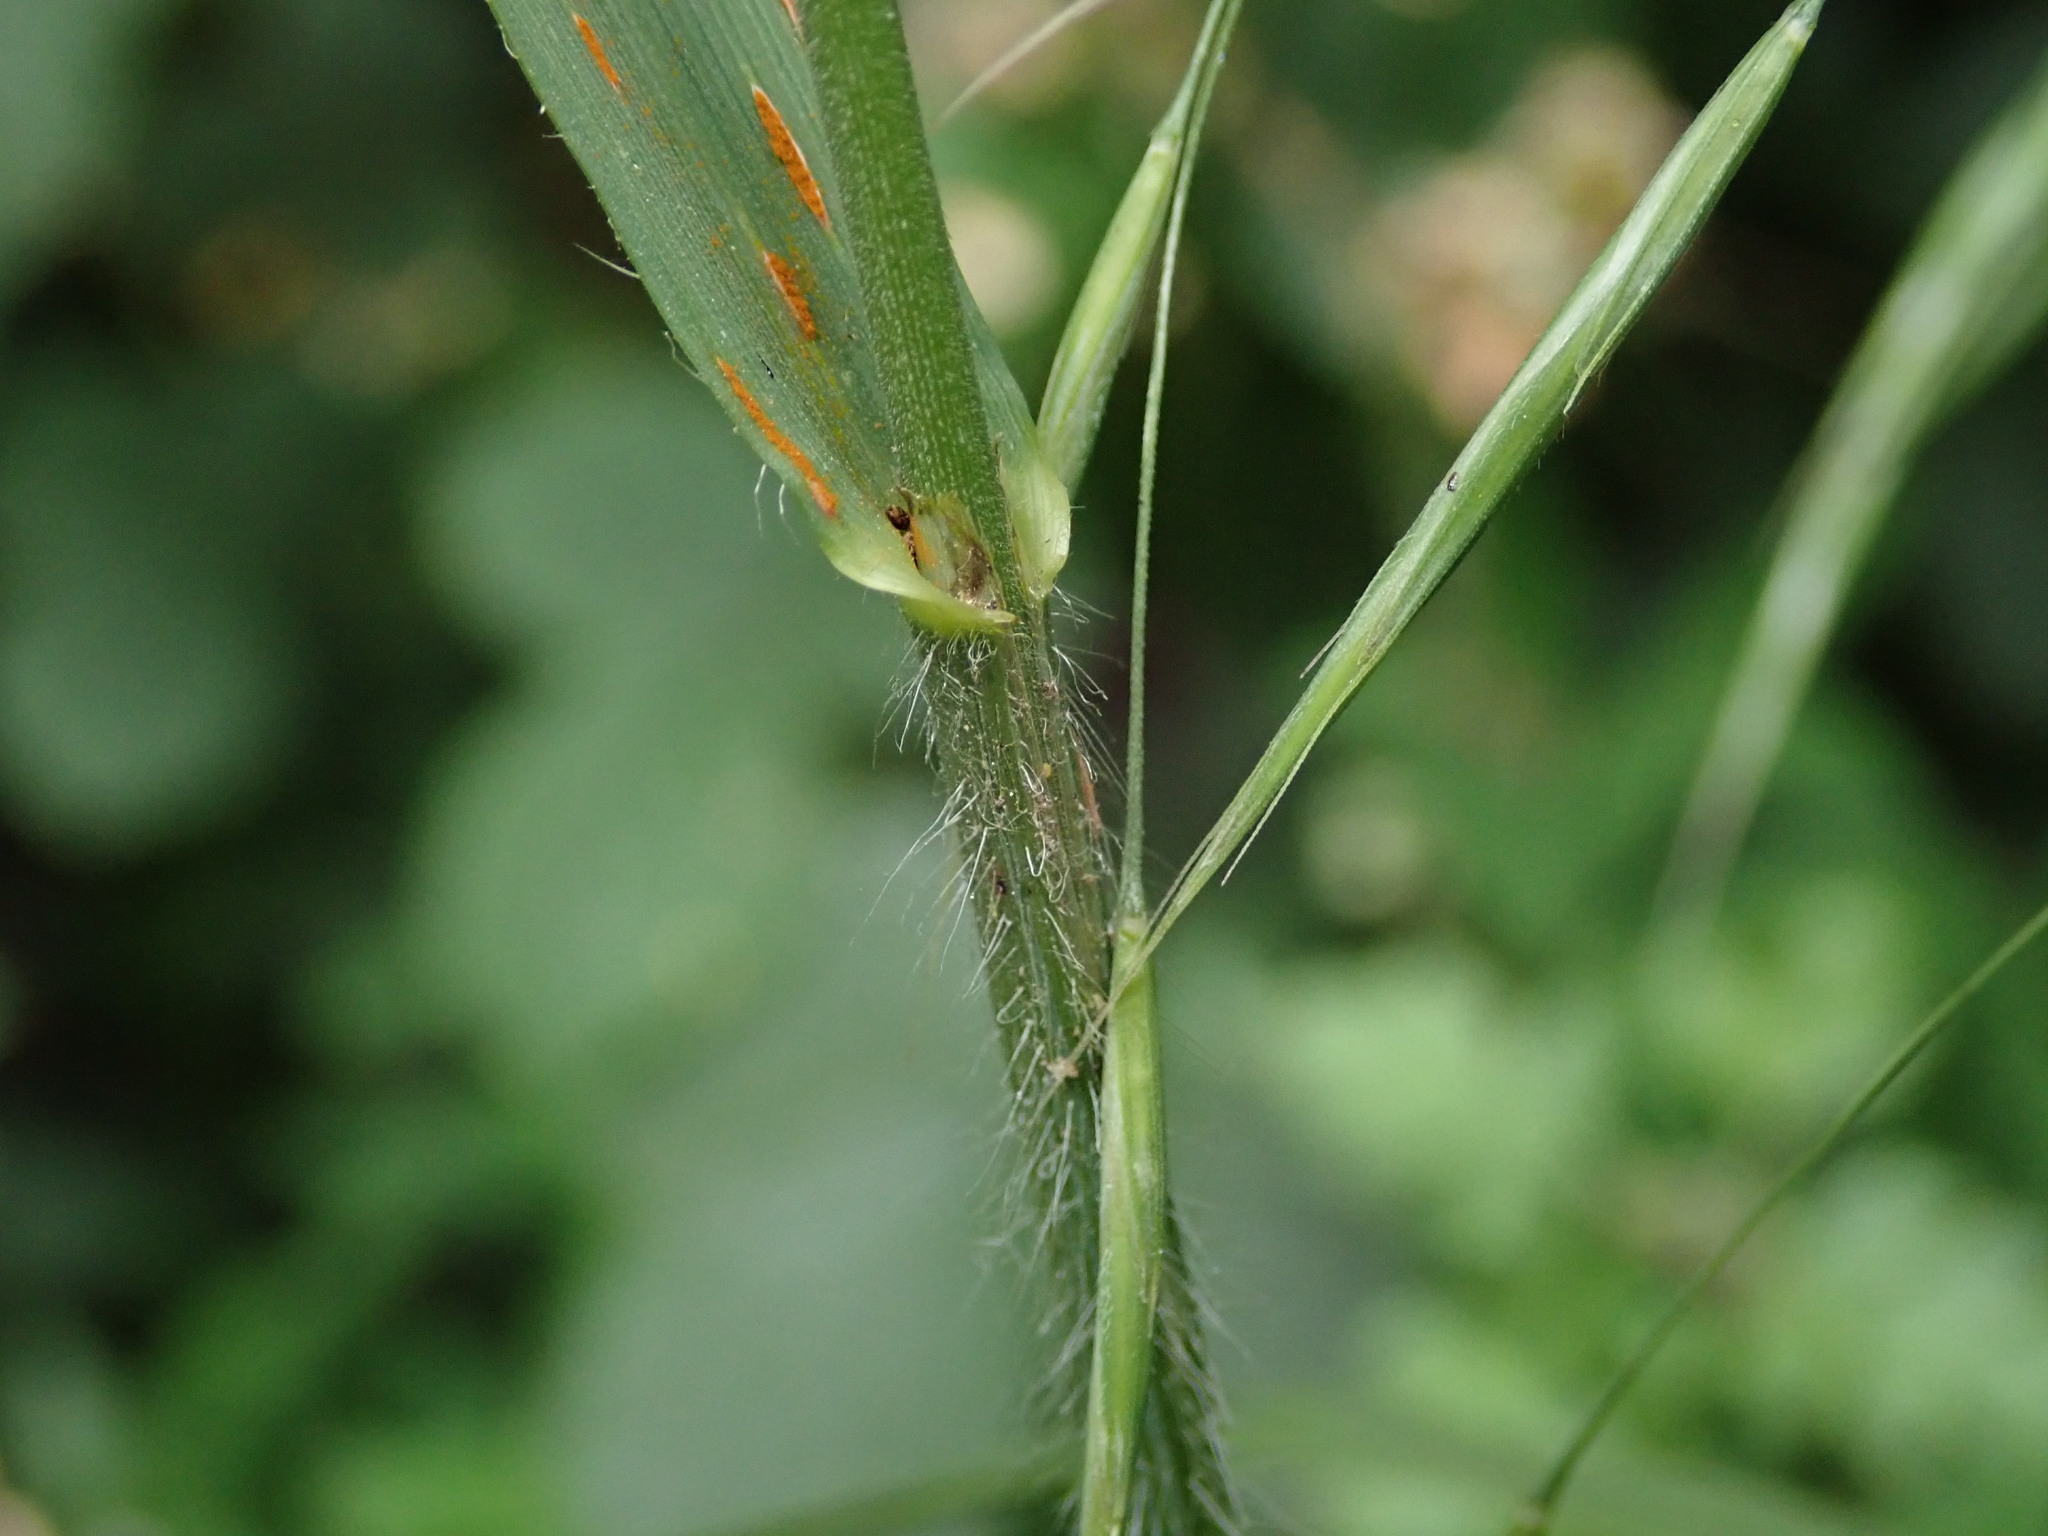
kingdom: Plantae
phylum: Tracheophyta
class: Liliopsida
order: Poales
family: Poaceae
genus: Bromus
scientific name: Bromus ramosus
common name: Hairy brome
